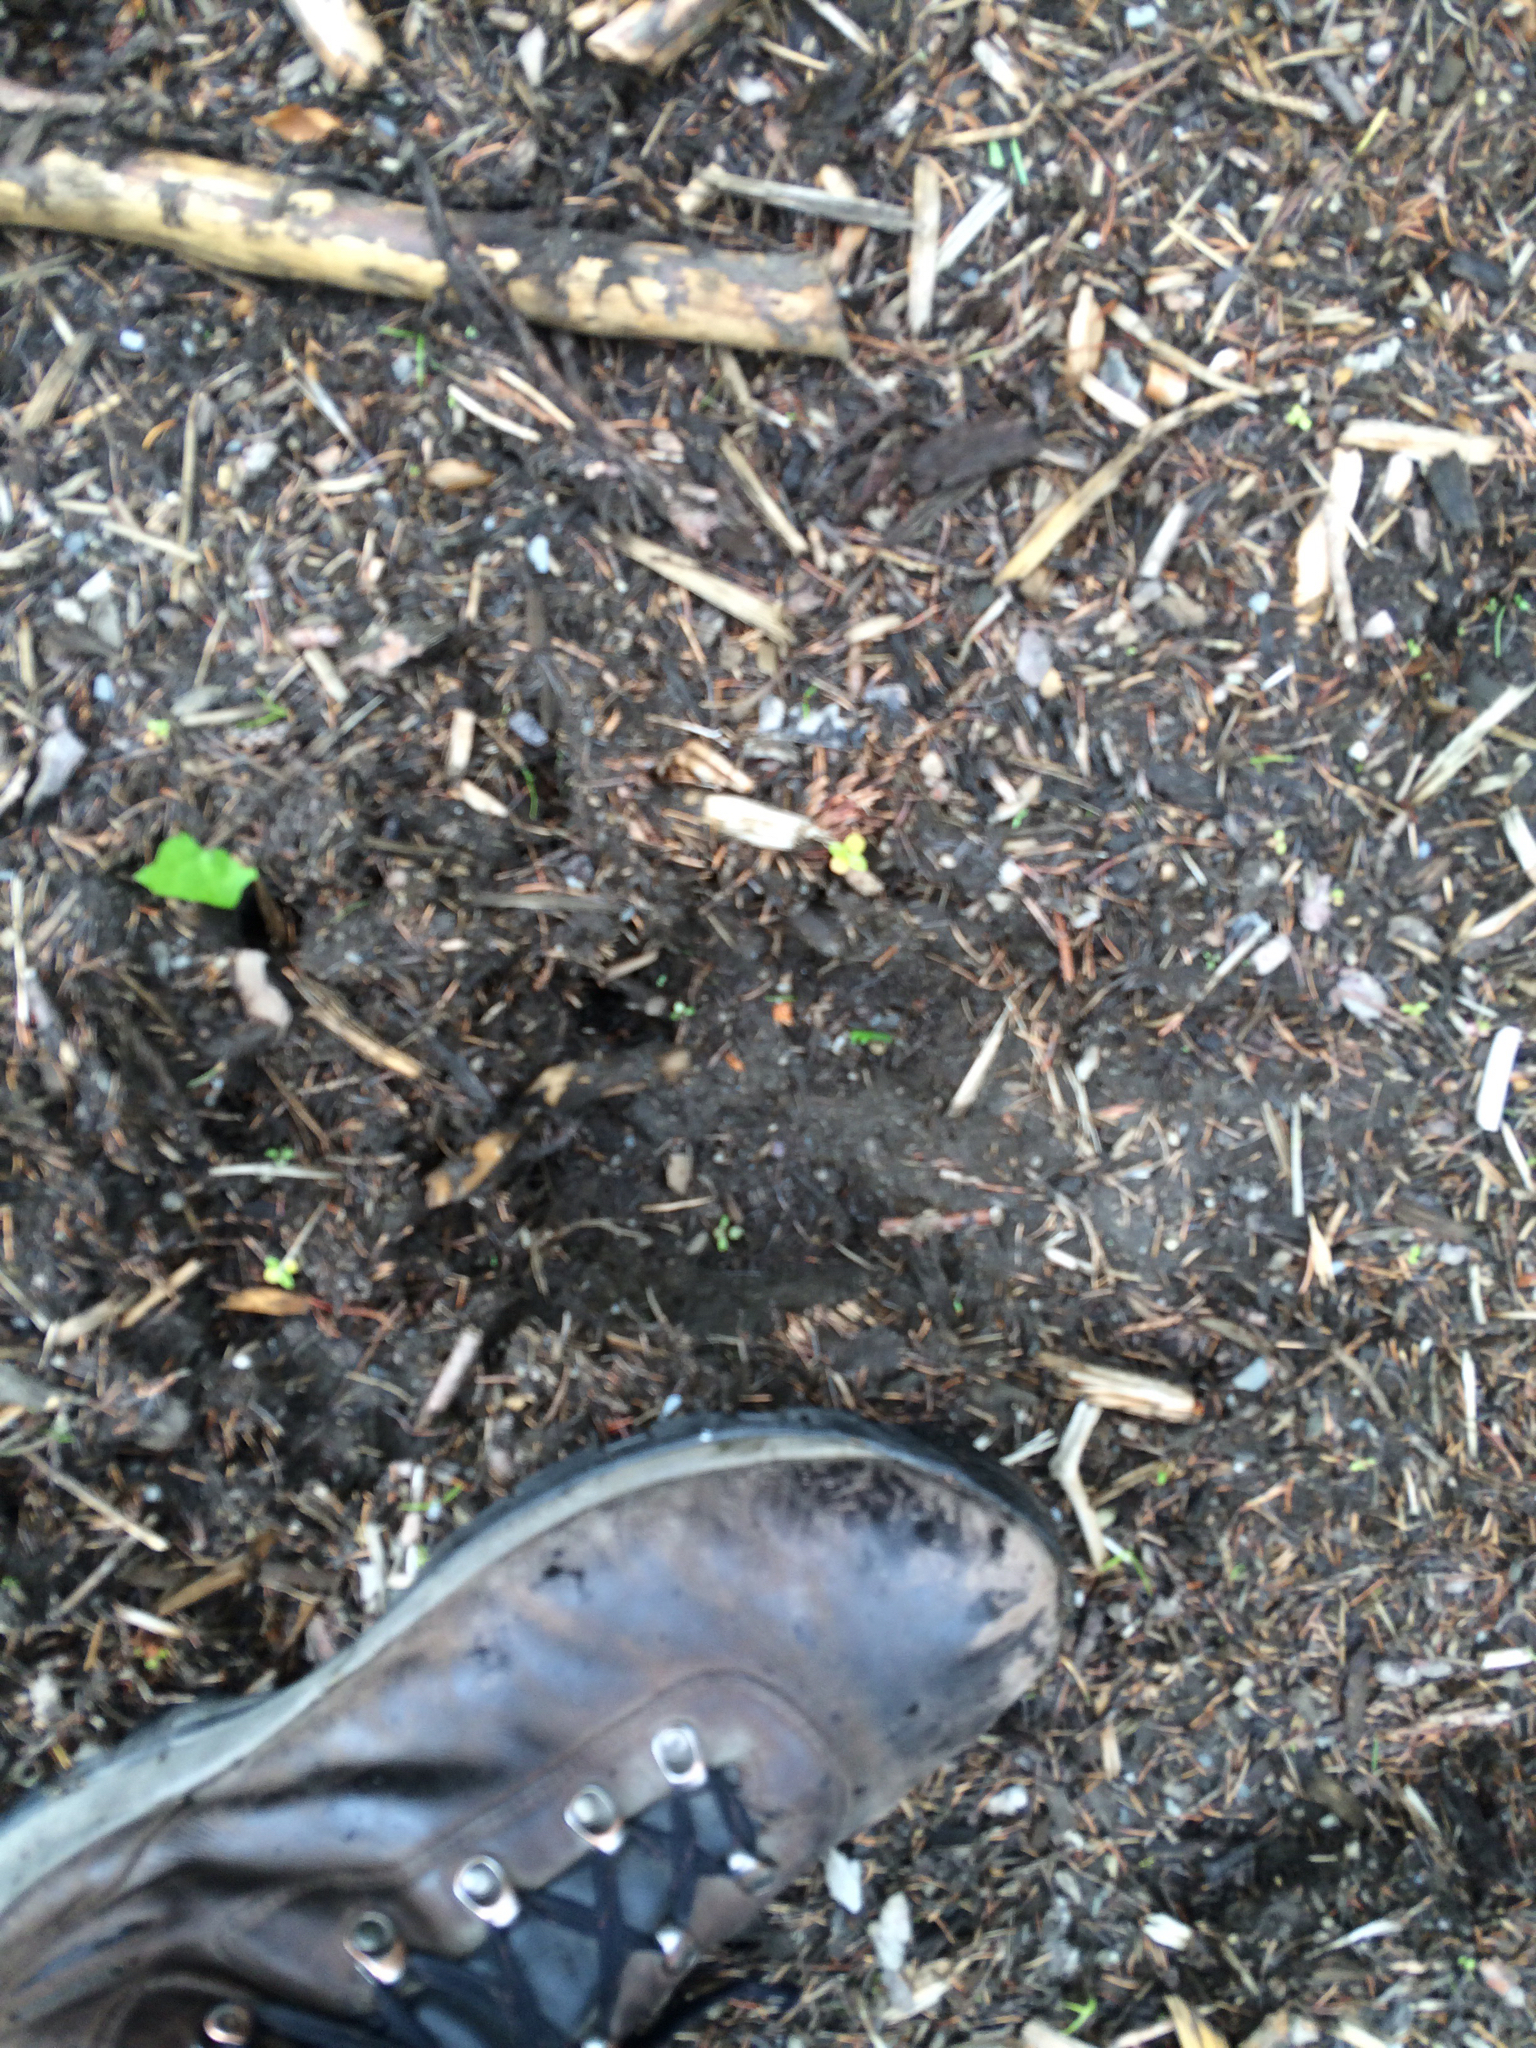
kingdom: Animalia
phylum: Chordata
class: Mammalia
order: Artiodactyla
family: Cervidae
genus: Alces
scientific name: Alces alces
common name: Moose
